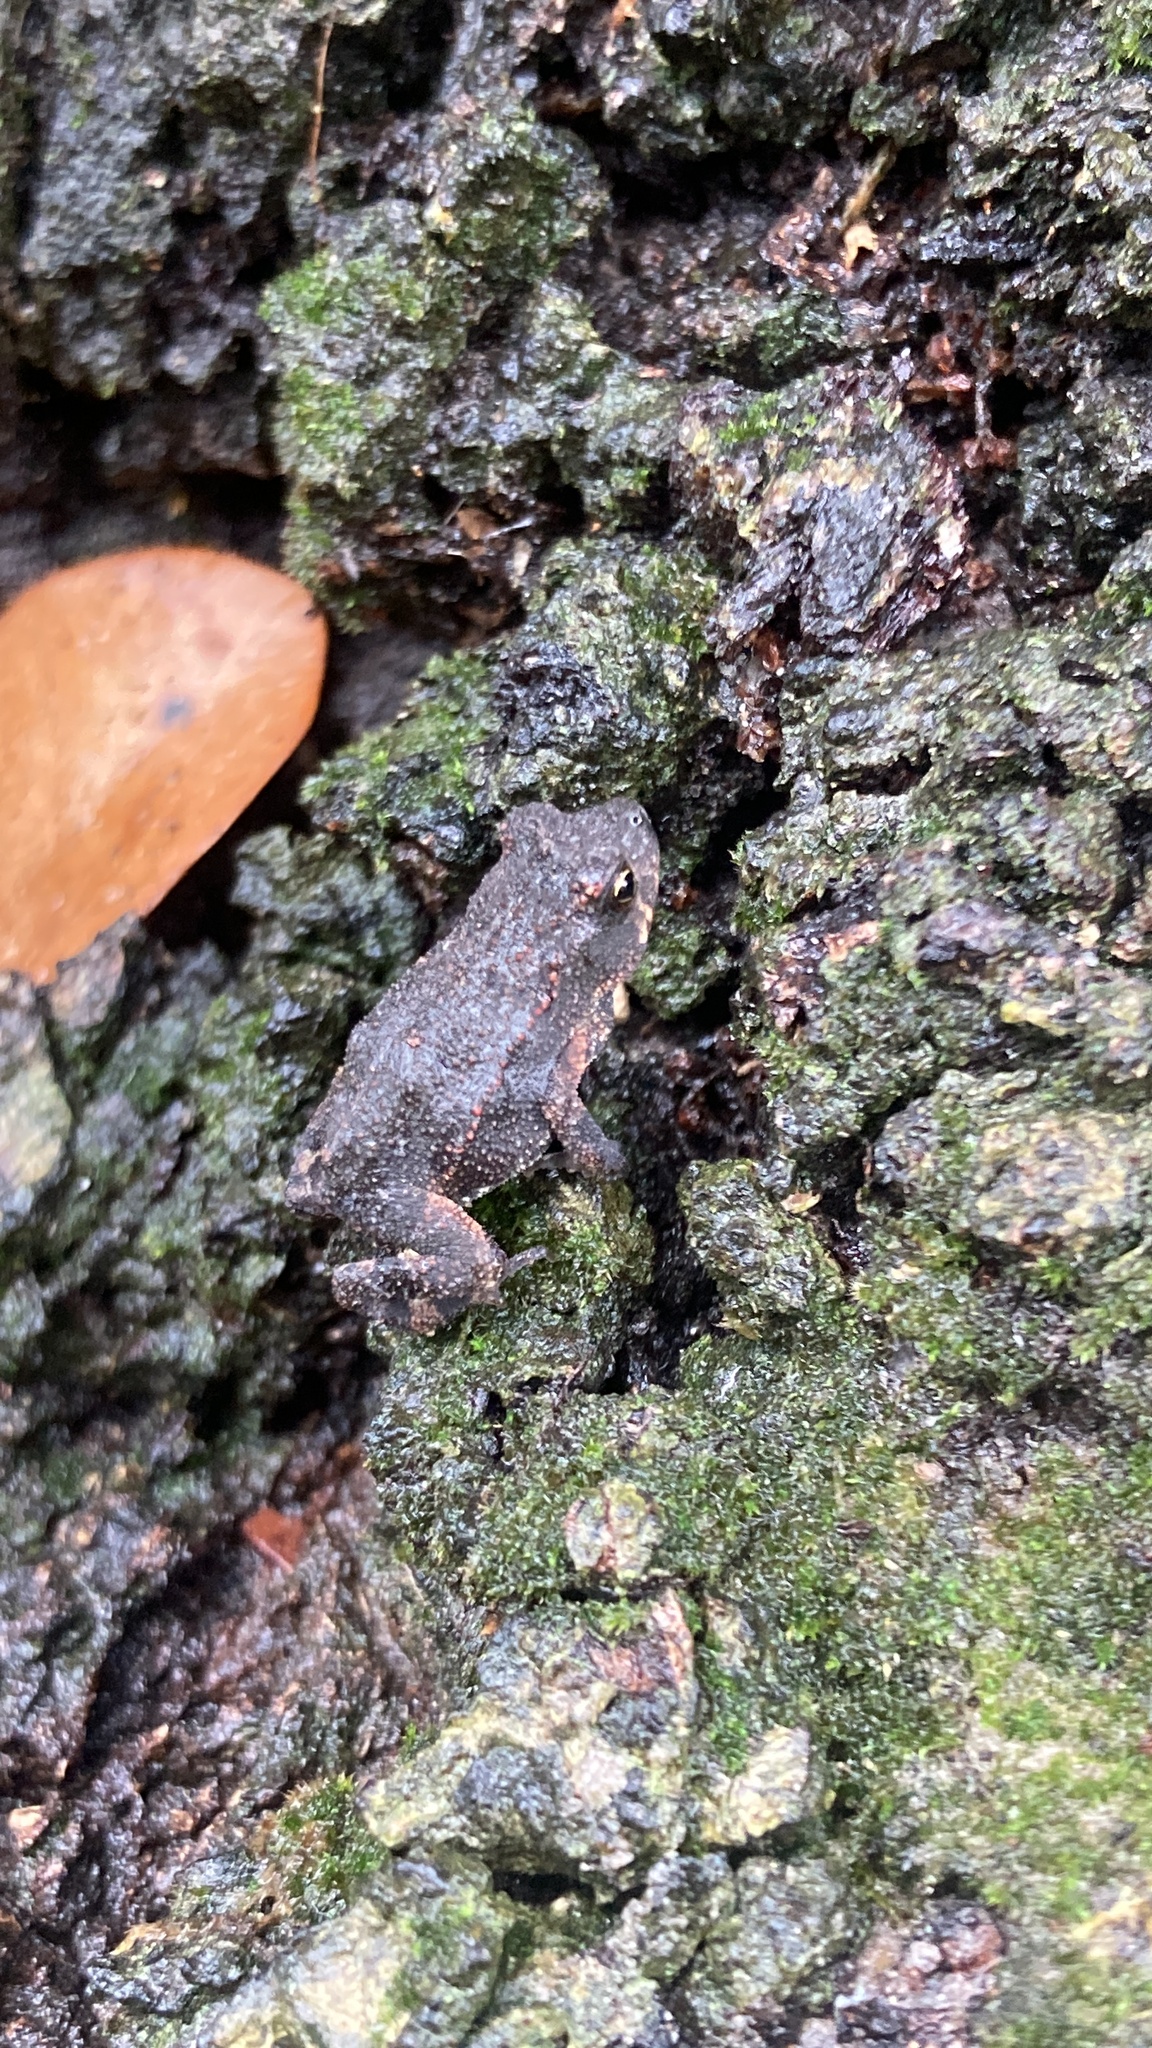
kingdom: Animalia
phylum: Chordata
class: Amphibia
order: Anura
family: Bufonidae
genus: Incilius
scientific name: Incilius nebulifer
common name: Gulf coast toad
